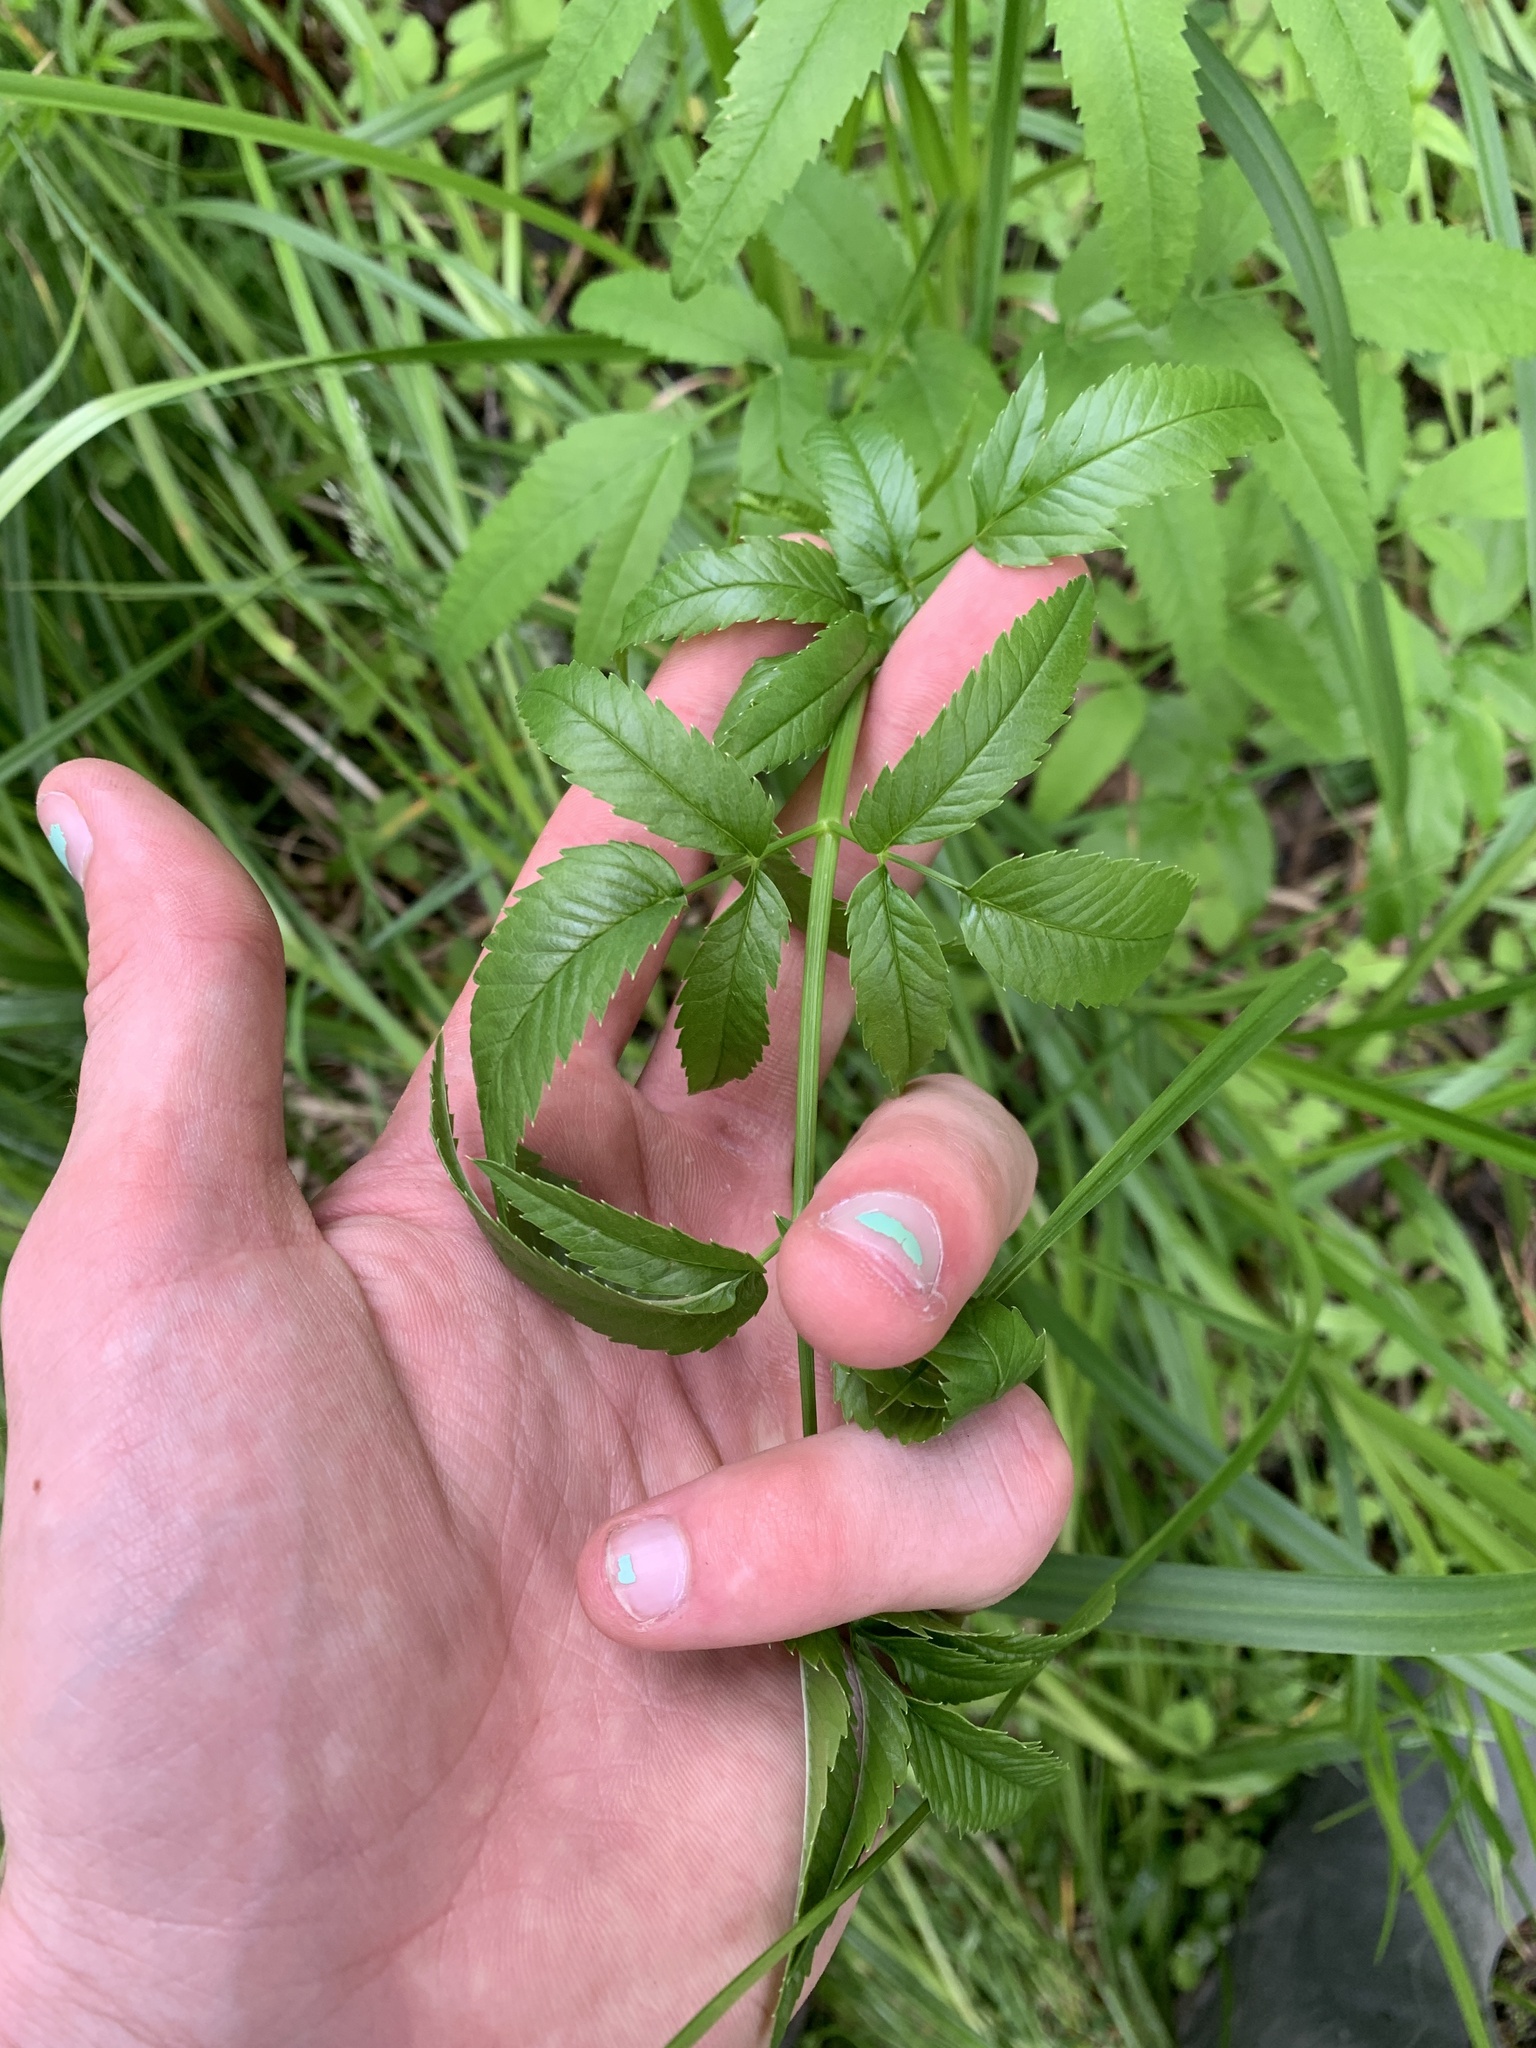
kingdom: Plantae
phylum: Tracheophyta
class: Magnoliopsida
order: Apiales
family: Apiaceae
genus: Cicuta
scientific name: Cicuta maculata
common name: Spotted cowbane
